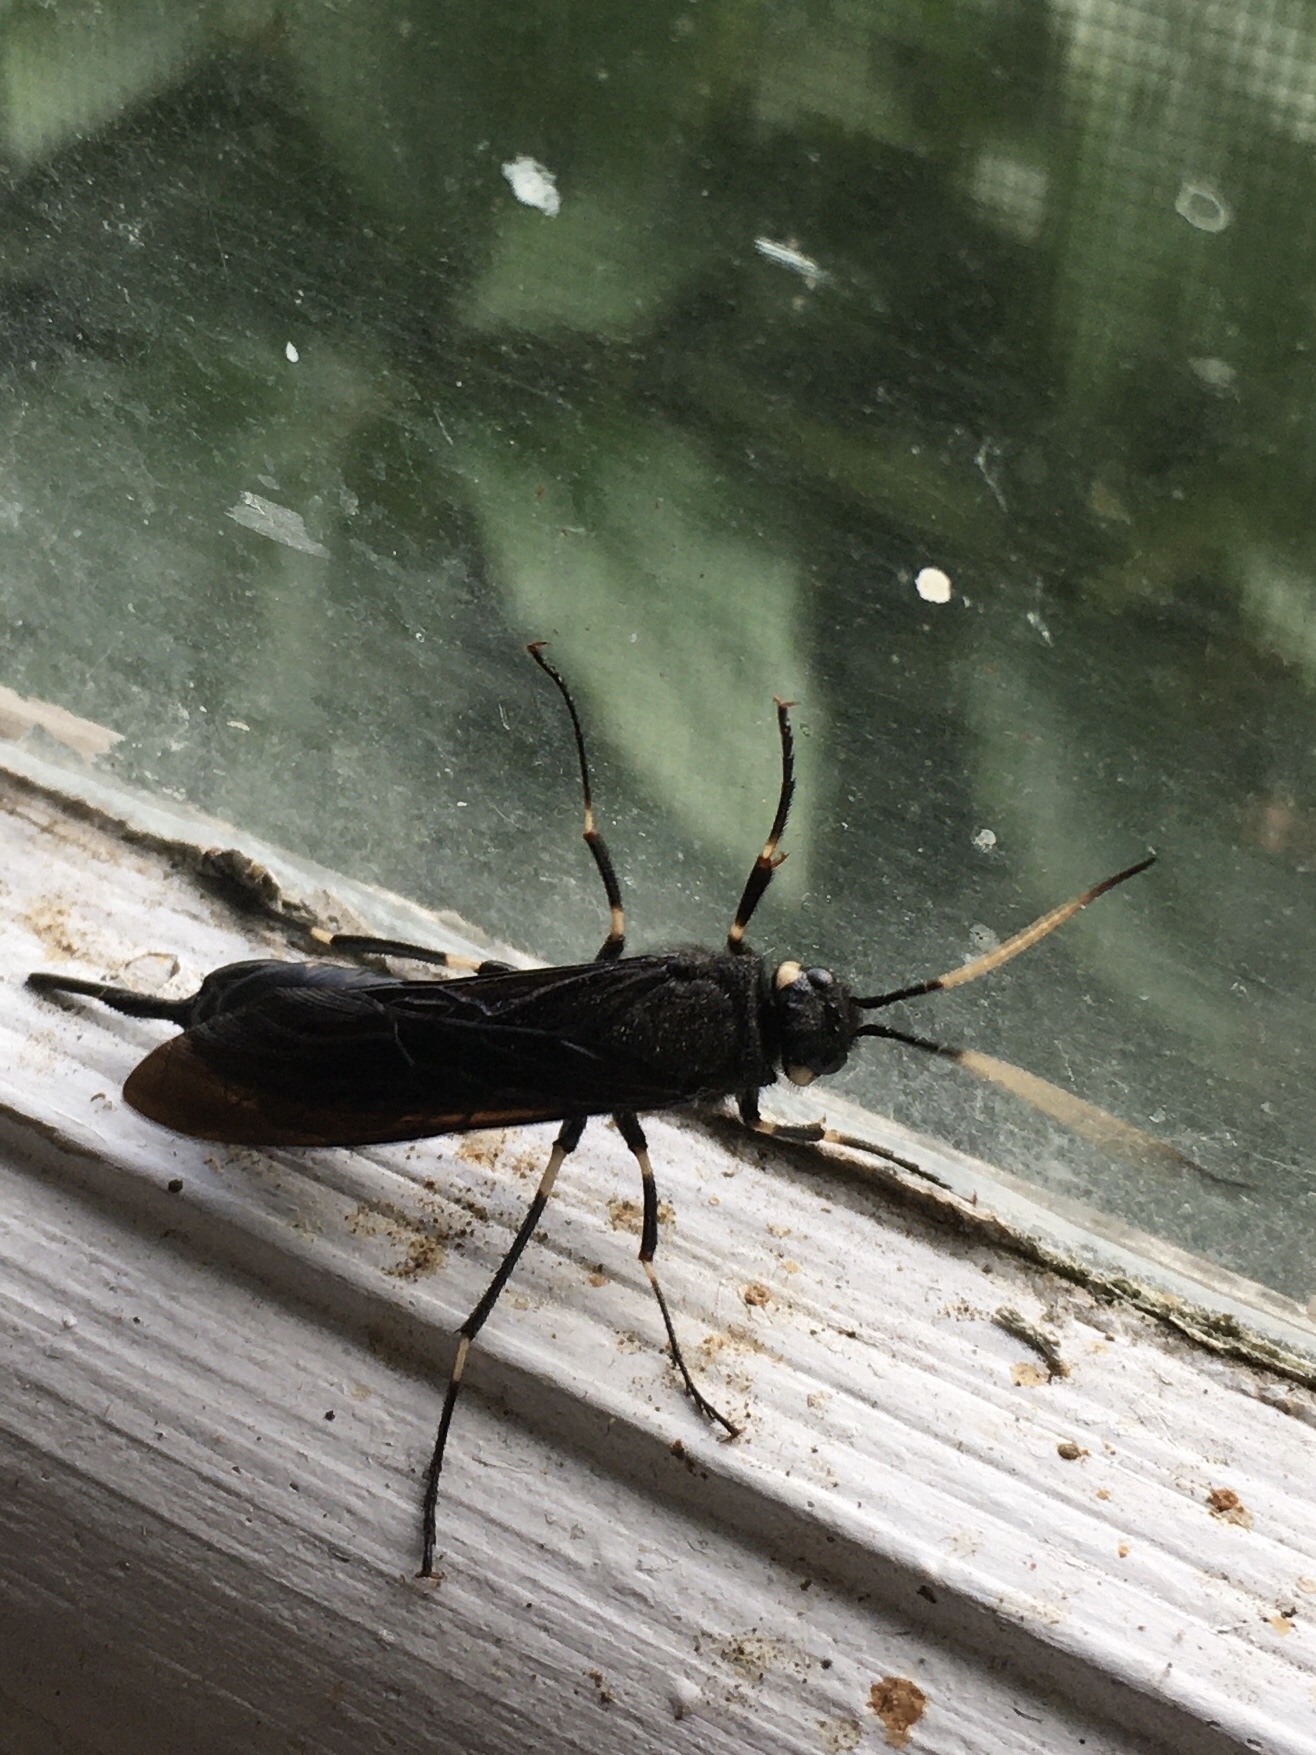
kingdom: Animalia
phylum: Arthropoda
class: Insecta
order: Hymenoptera
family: Siricidae
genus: Urocerus
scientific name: Urocerus albicornis
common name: White-horned horntail
